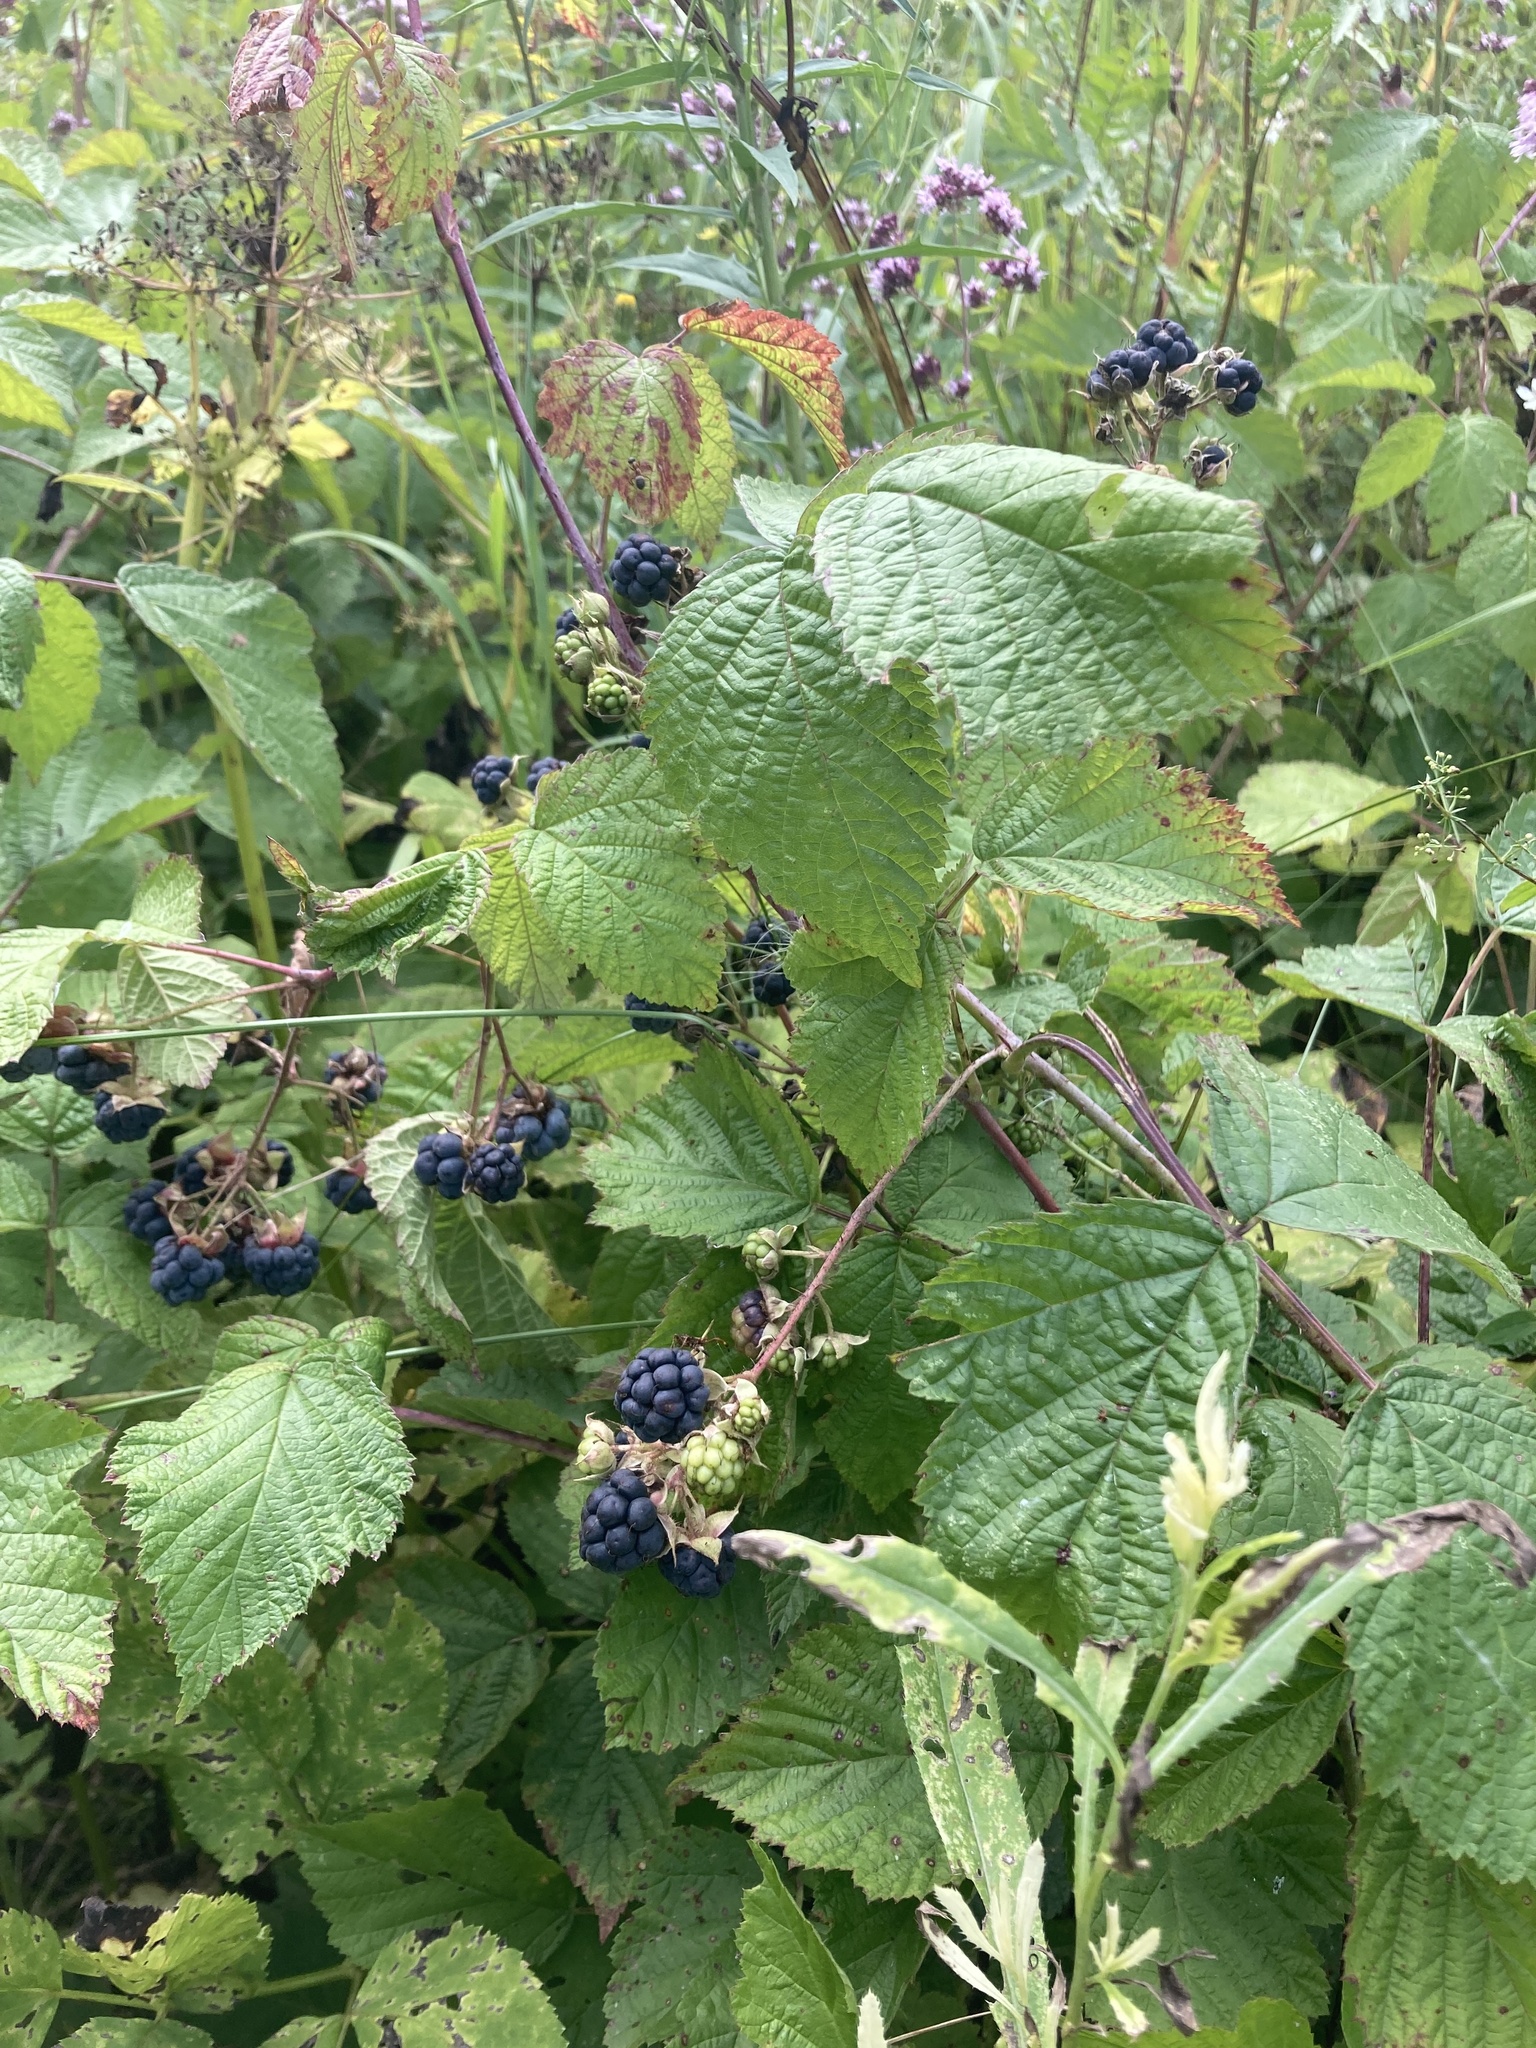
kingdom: Plantae
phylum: Tracheophyta
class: Magnoliopsida
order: Rosales
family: Rosaceae
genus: Rubus
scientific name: Rubus caesius
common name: Dewberry
